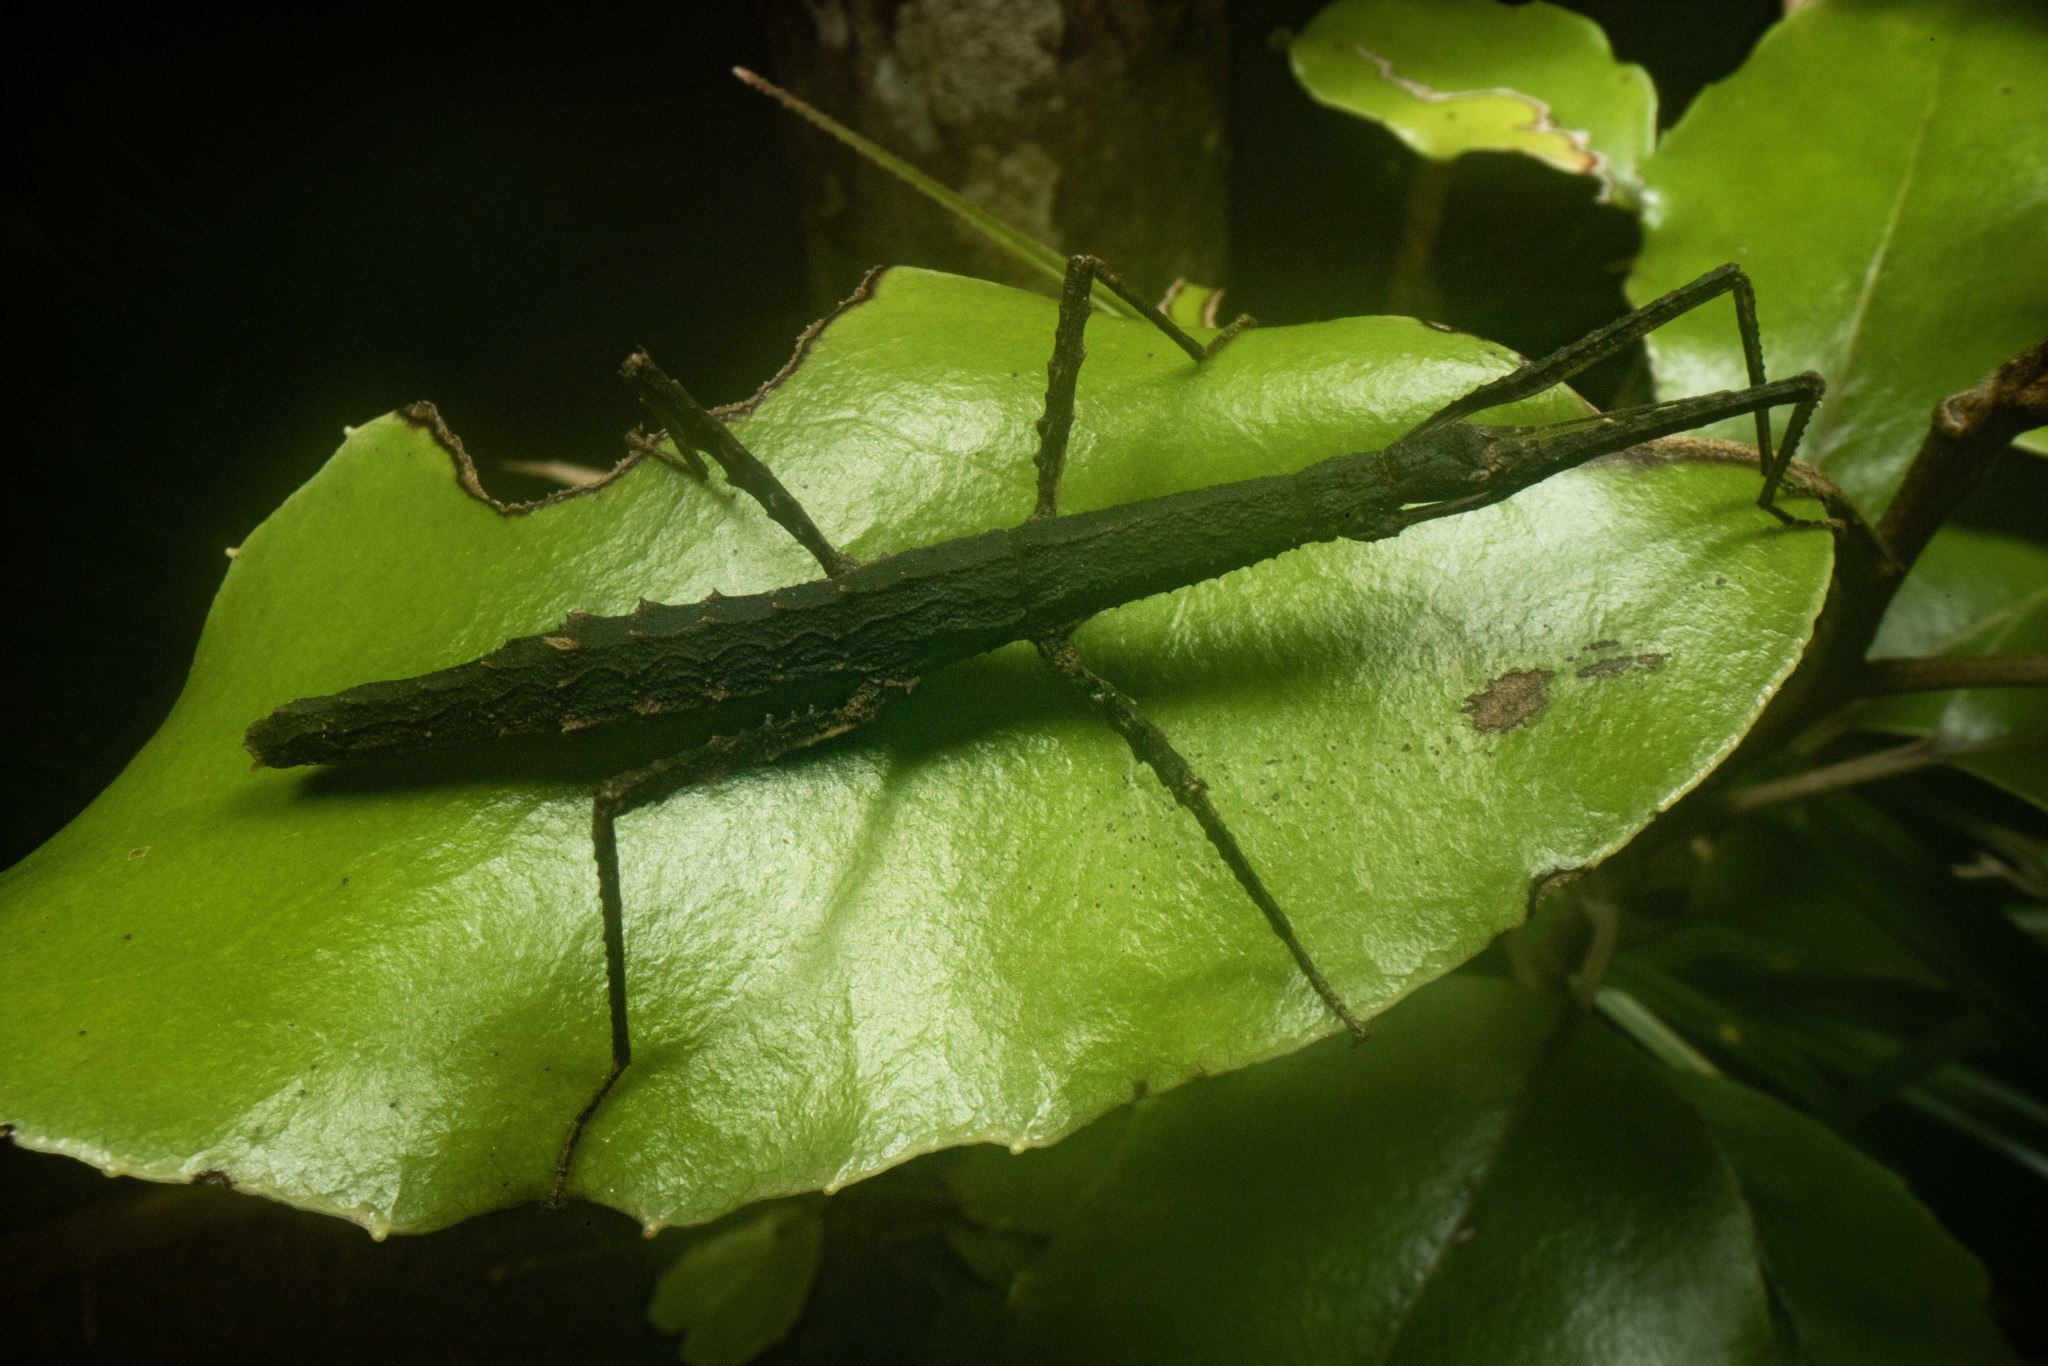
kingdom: Animalia
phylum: Arthropoda
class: Insecta
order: Phasmida
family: Phasmatidae
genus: Spinotectarchus
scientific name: Spinotectarchus acornutus
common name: The spiny ridge-backed stick insect
